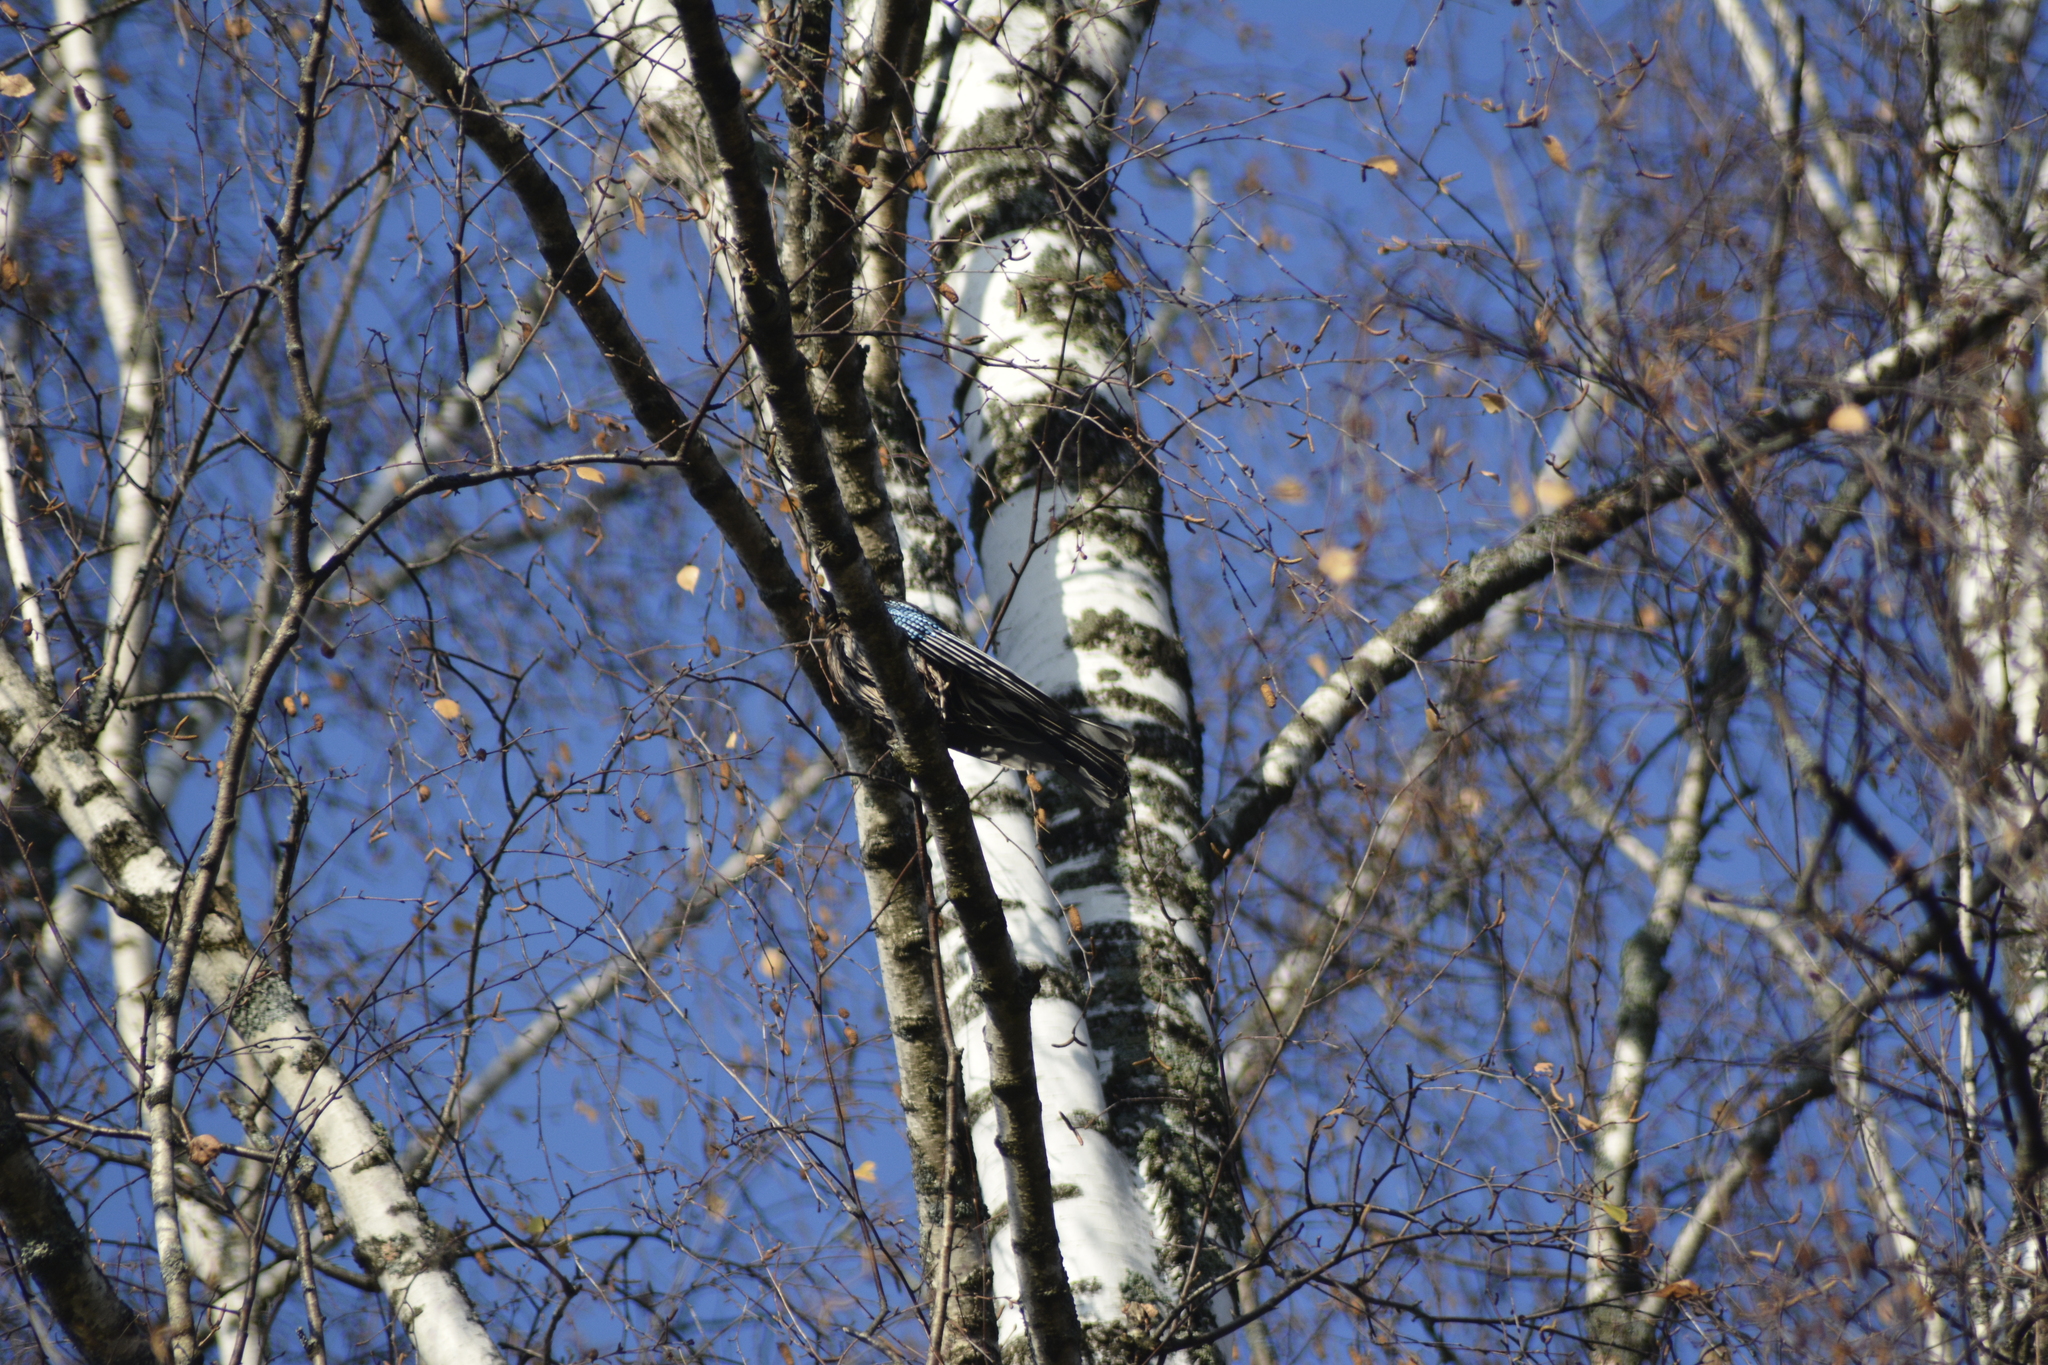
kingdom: Animalia
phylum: Chordata
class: Aves
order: Passeriformes
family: Corvidae
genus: Garrulus
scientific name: Garrulus glandarius
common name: Eurasian jay
